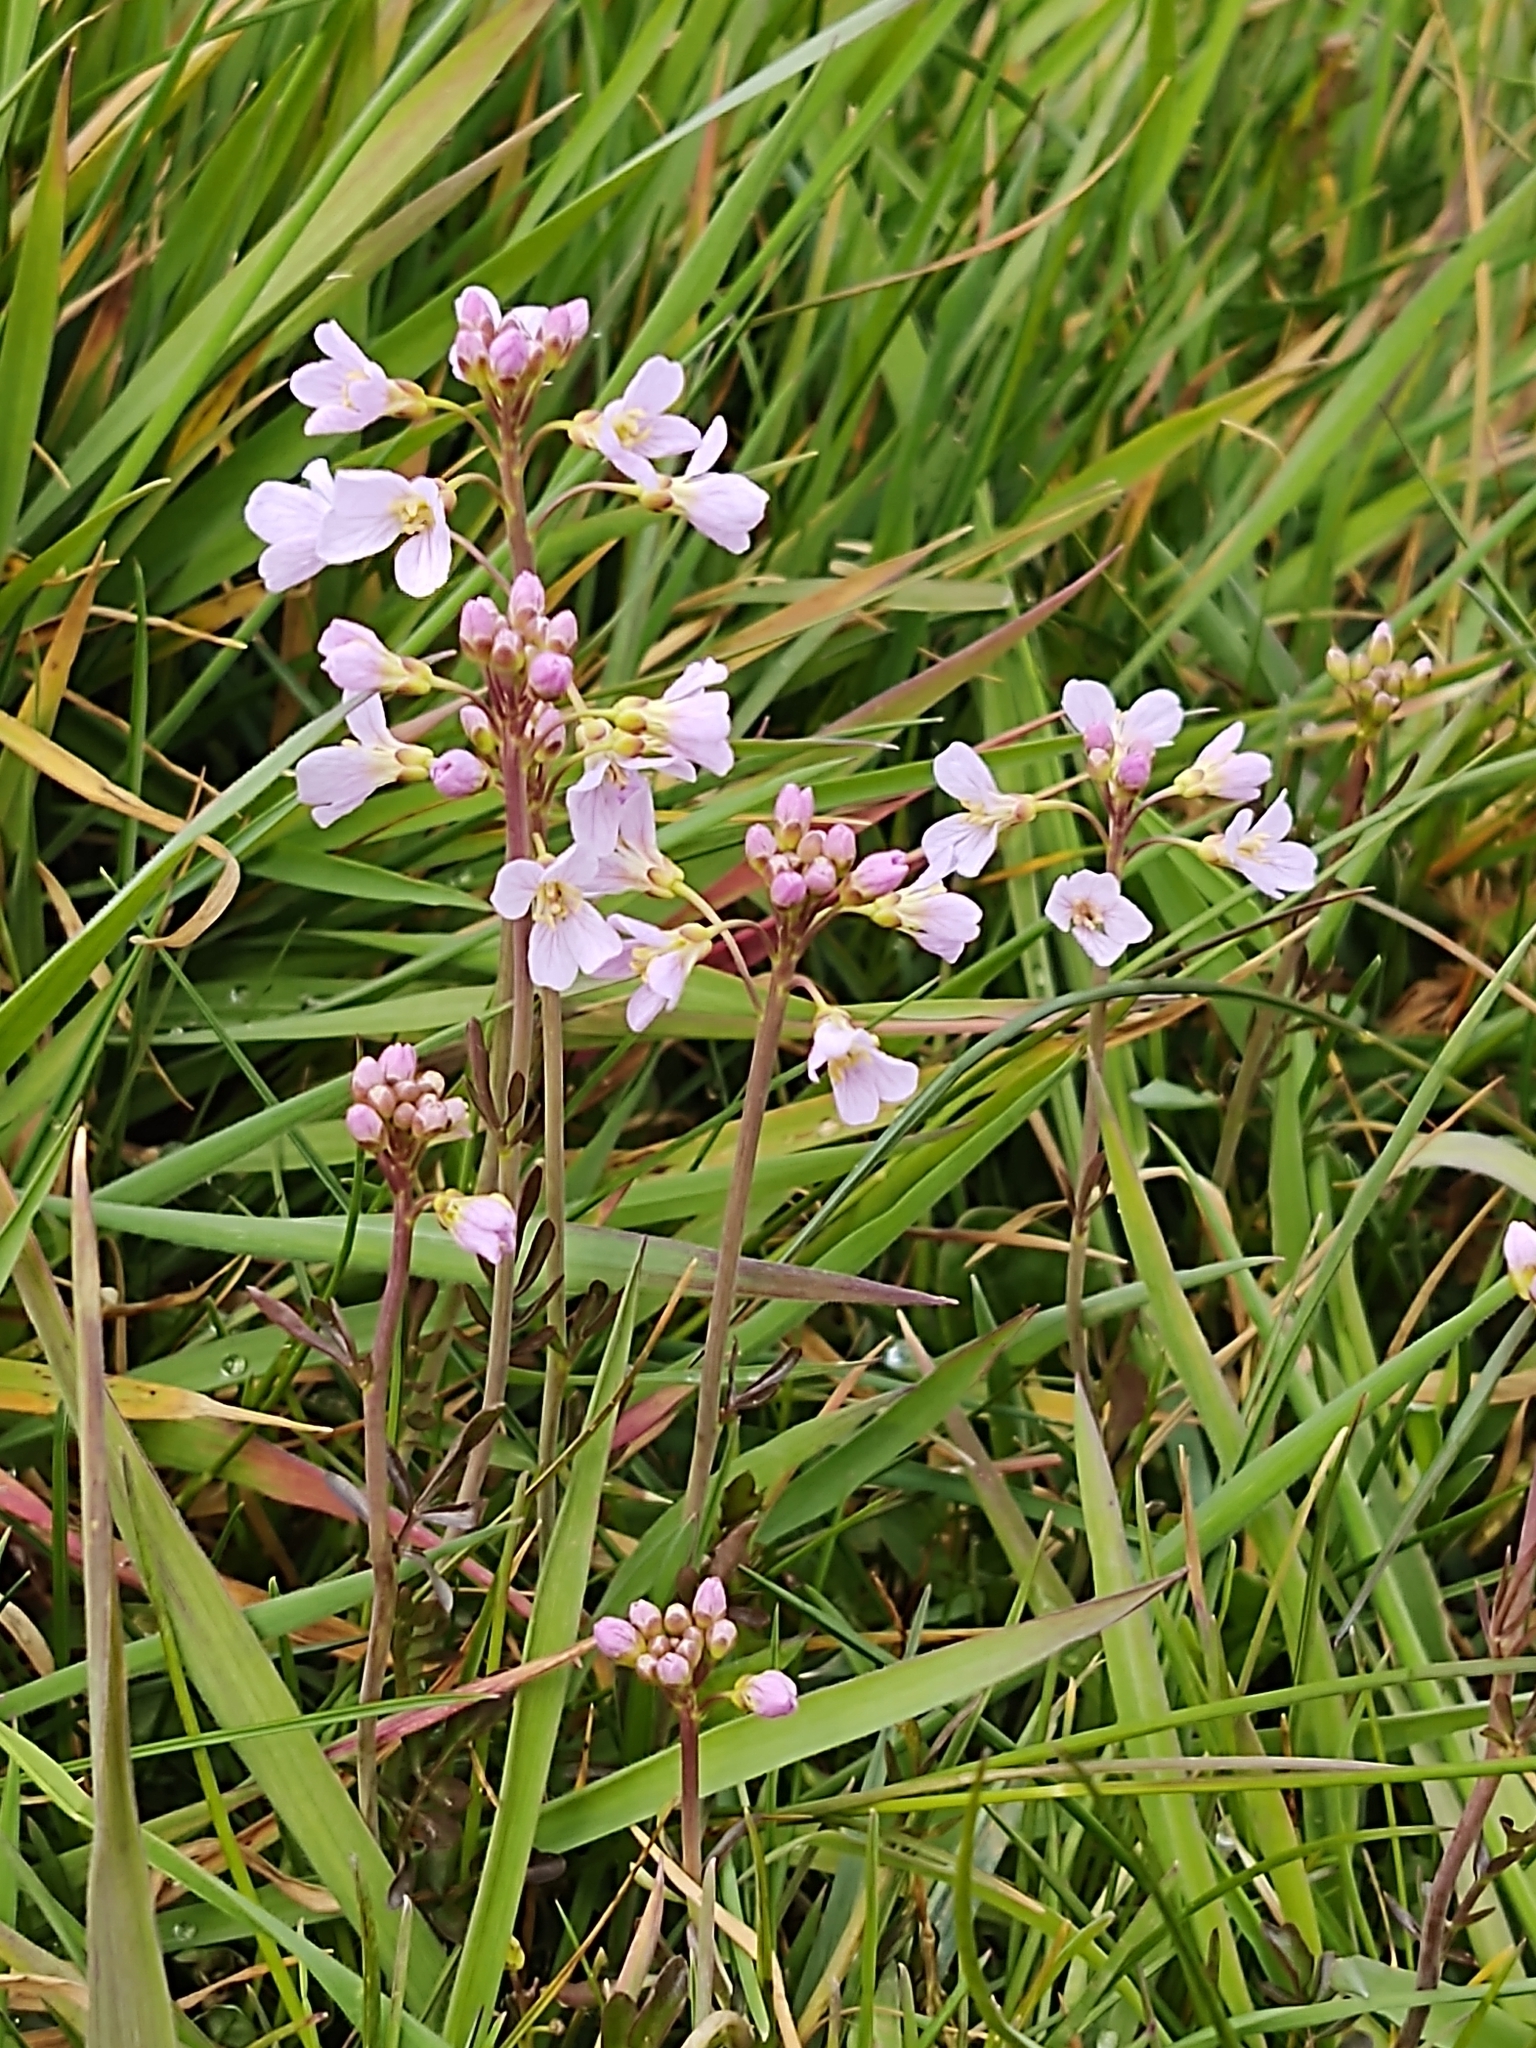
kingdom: Plantae
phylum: Tracheophyta
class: Magnoliopsida
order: Brassicales
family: Brassicaceae
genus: Cardamine
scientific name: Cardamine pratensis
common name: Cuckoo flower
